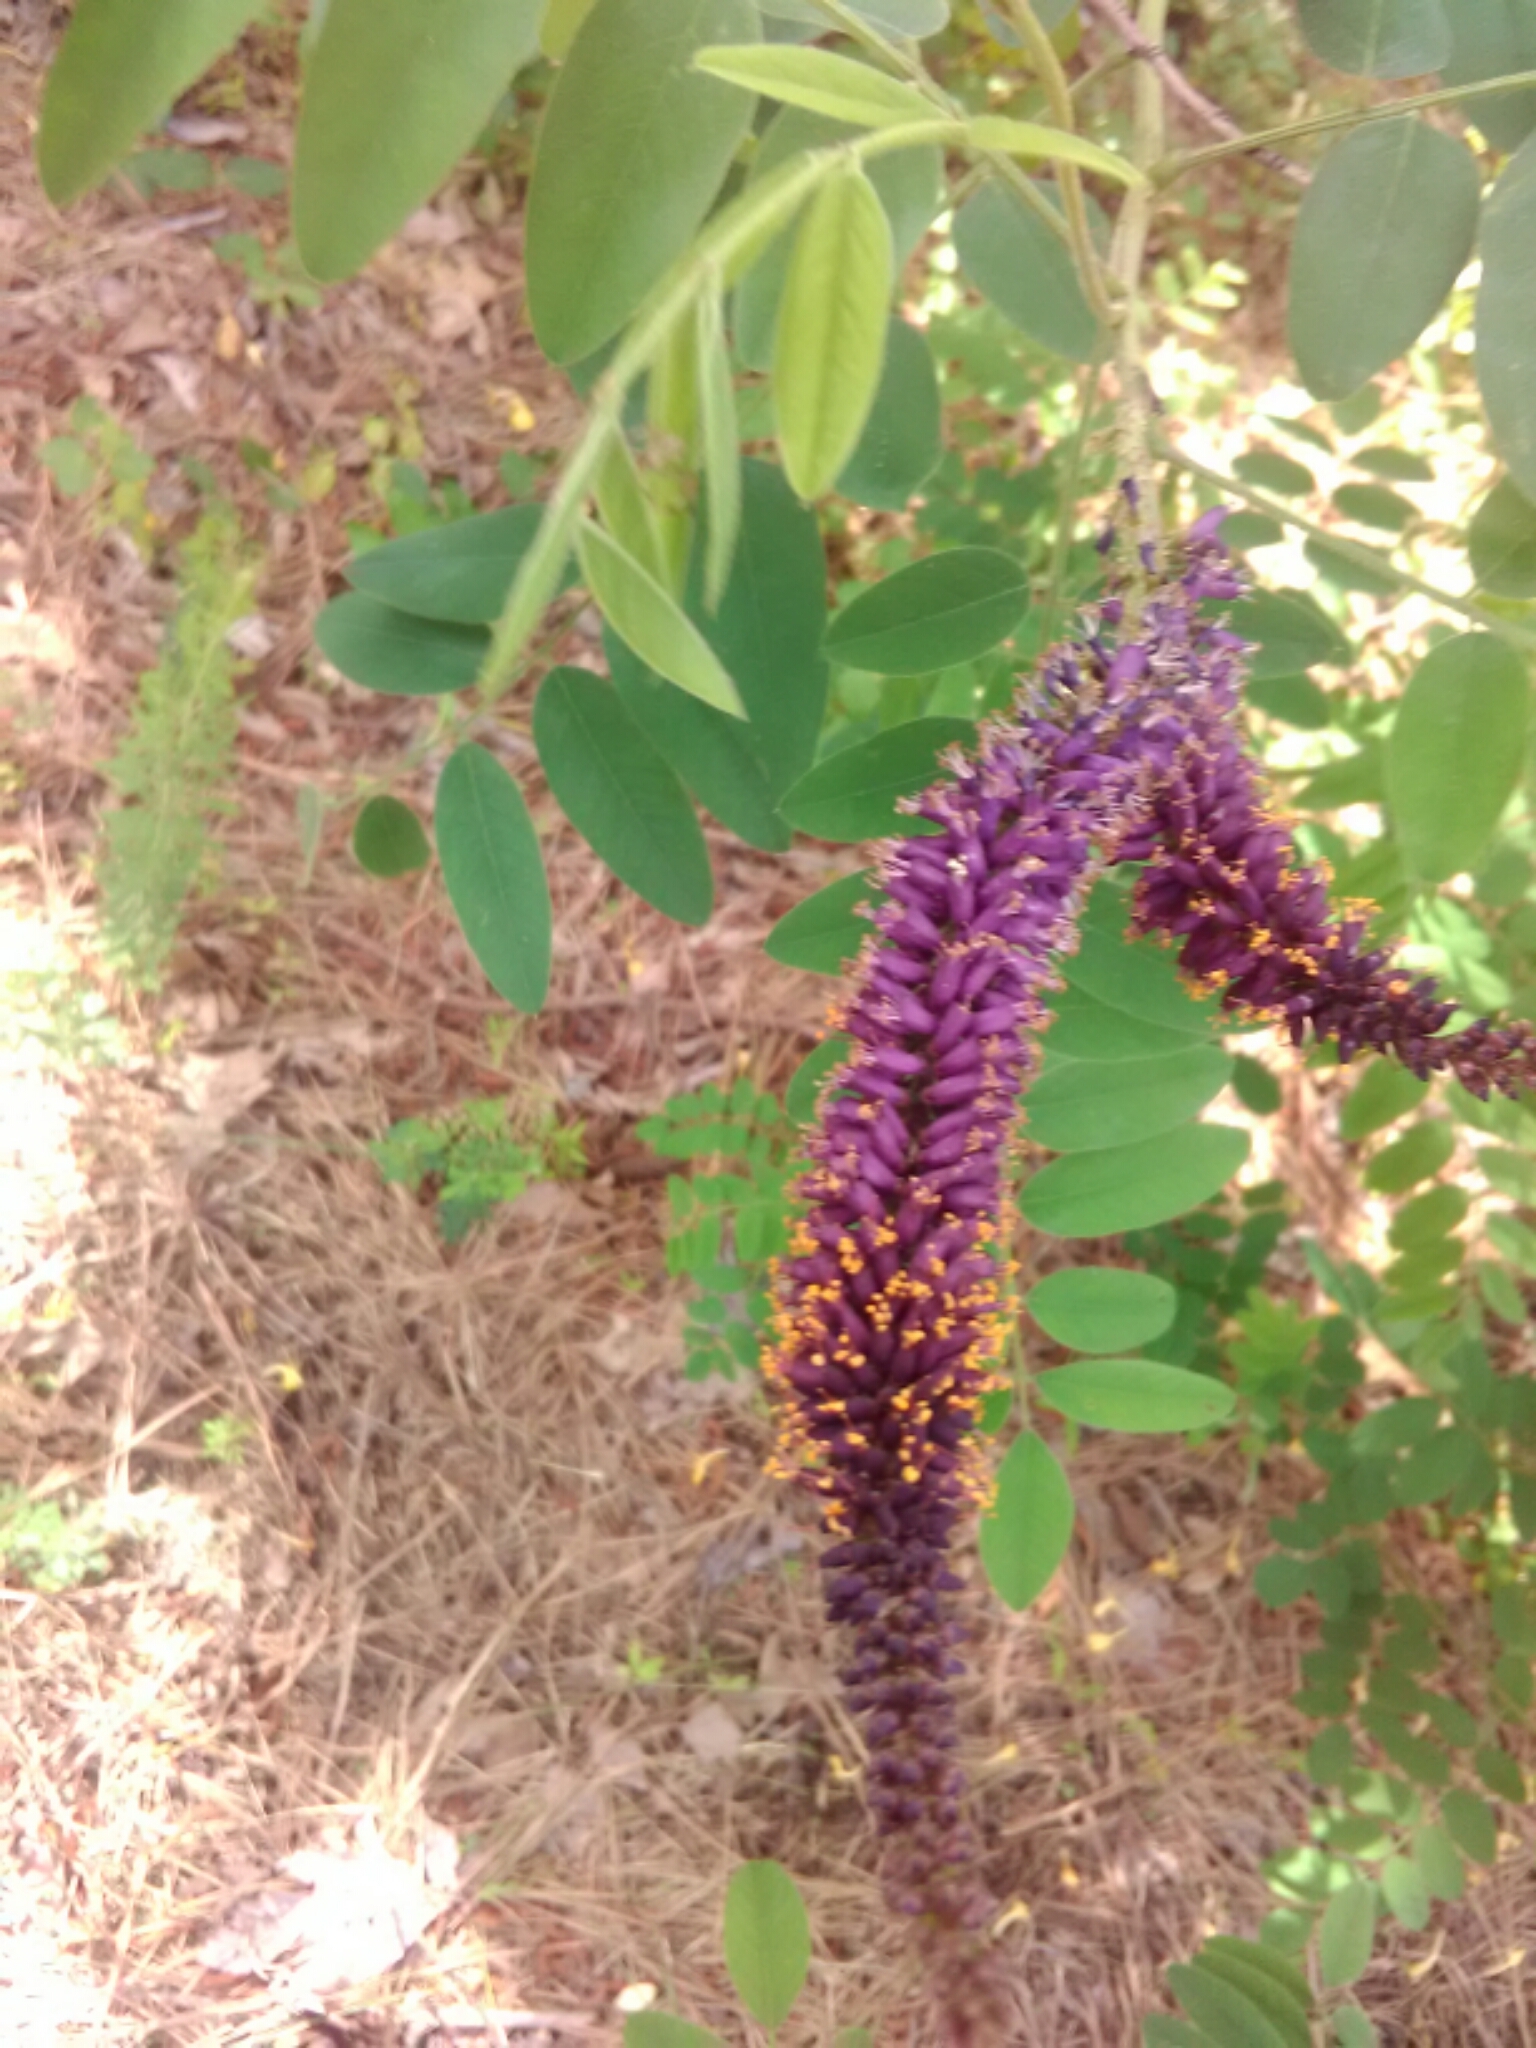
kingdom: Plantae
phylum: Tracheophyta
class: Magnoliopsida
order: Fabales
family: Fabaceae
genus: Amorpha
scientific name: Amorpha fruticosa
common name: False indigo
